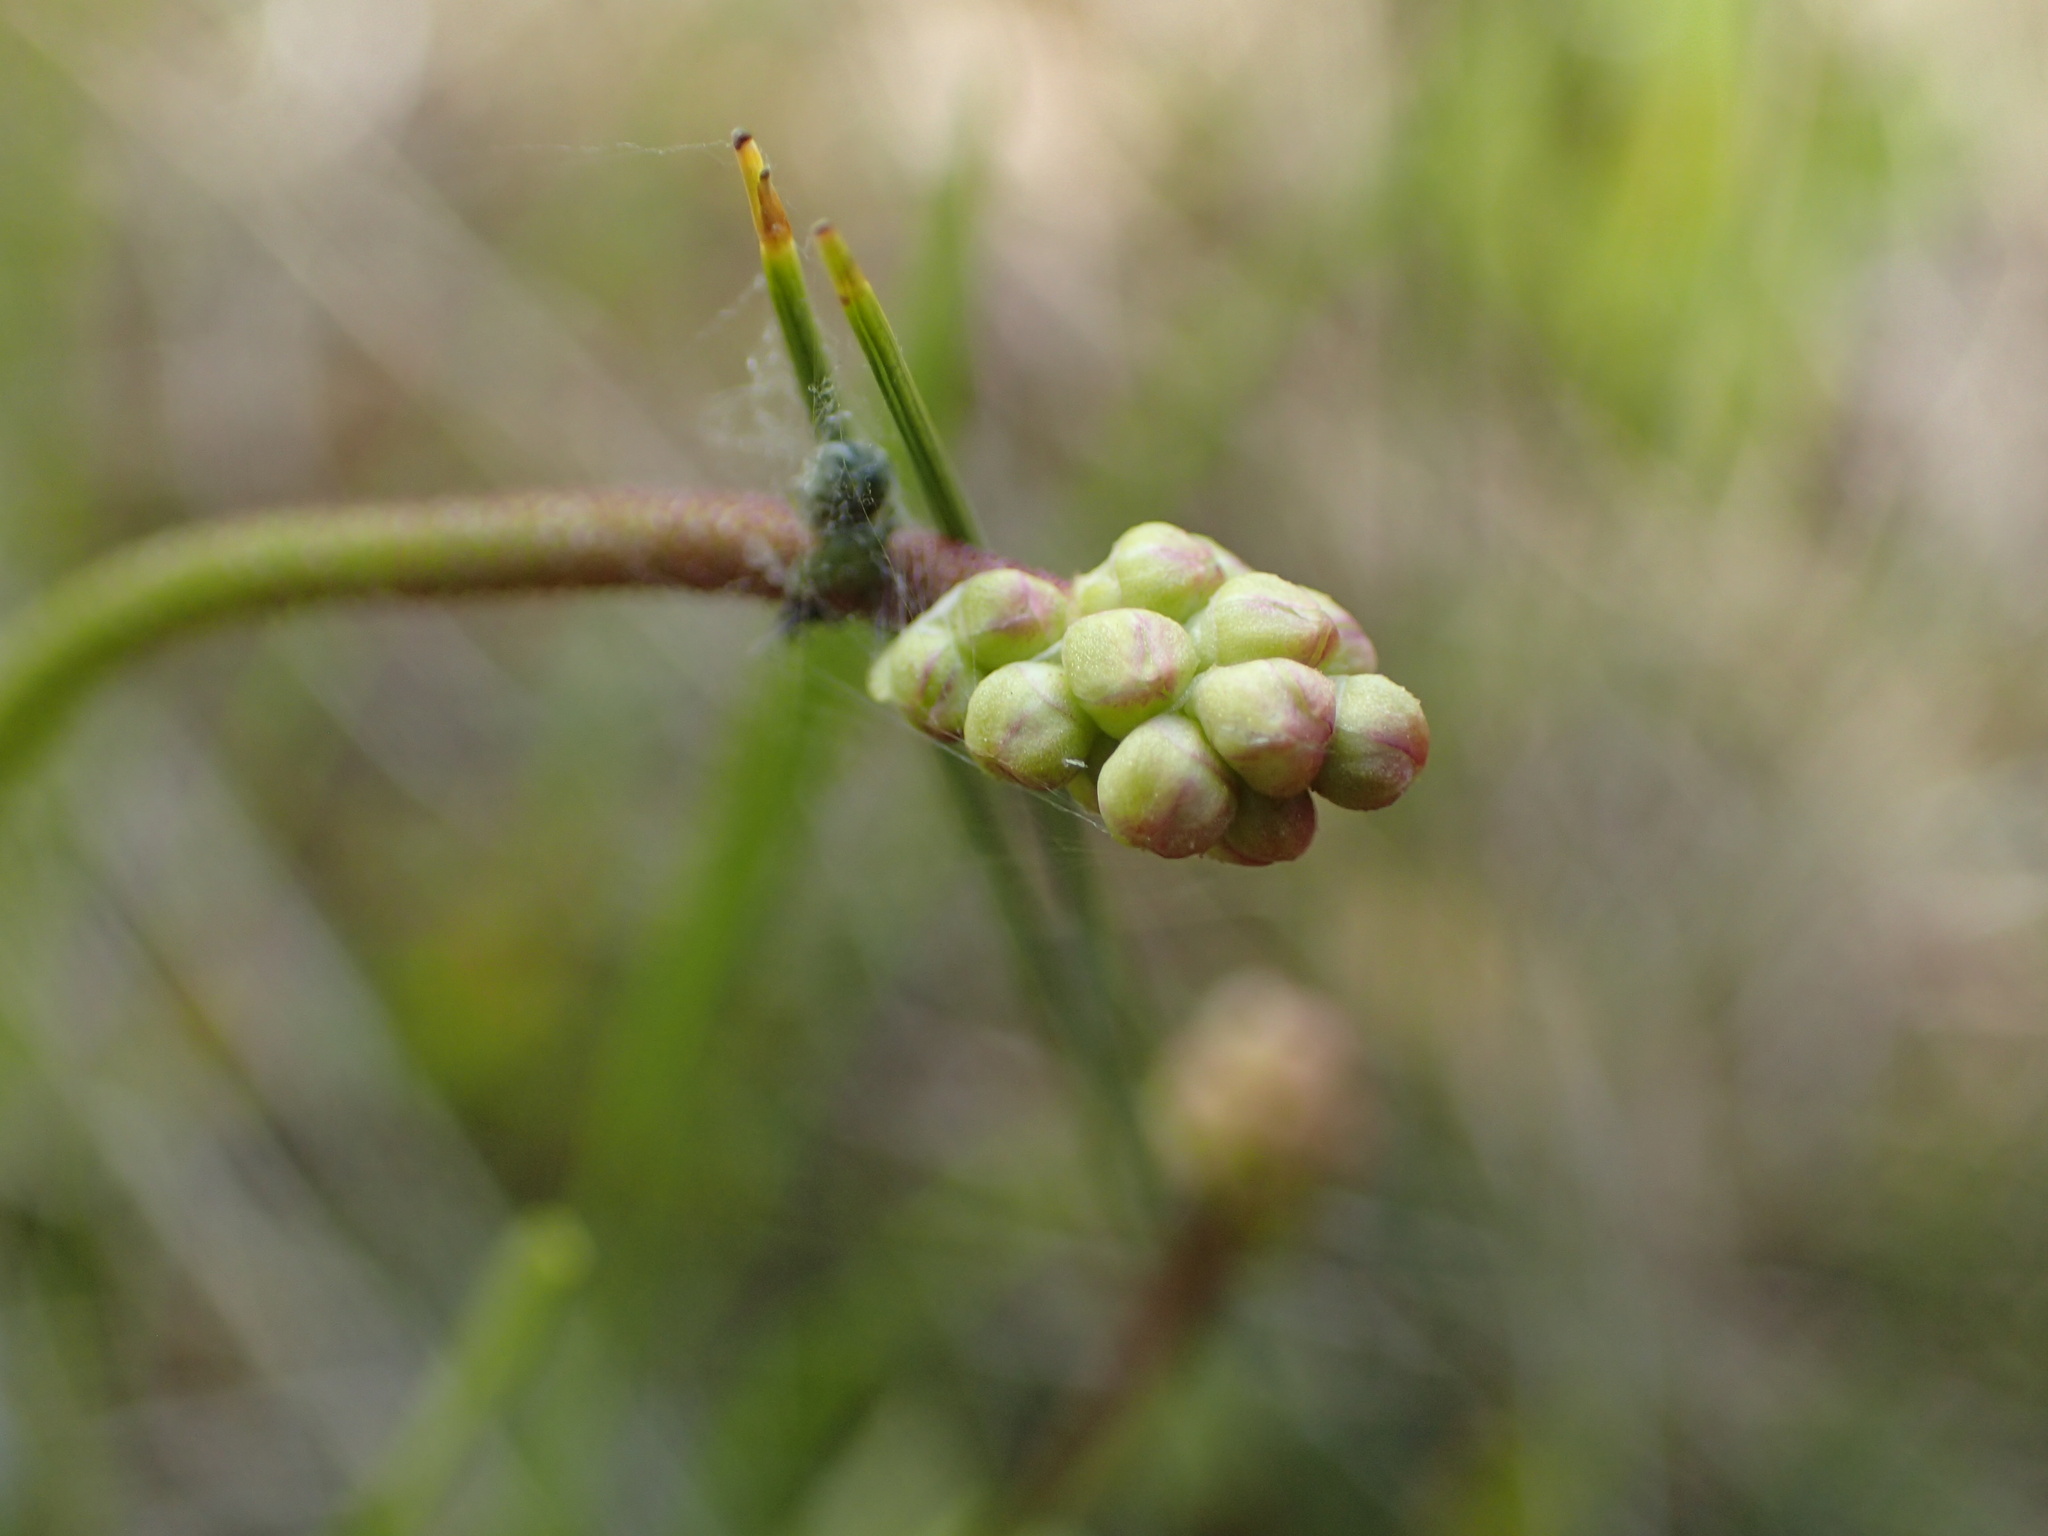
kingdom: Plantae
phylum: Tracheophyta
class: Liliopsida
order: Alismatales
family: Tofieldiaceae
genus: Triantha
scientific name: Triantha glutinosa
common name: Glutinous tofieldia
